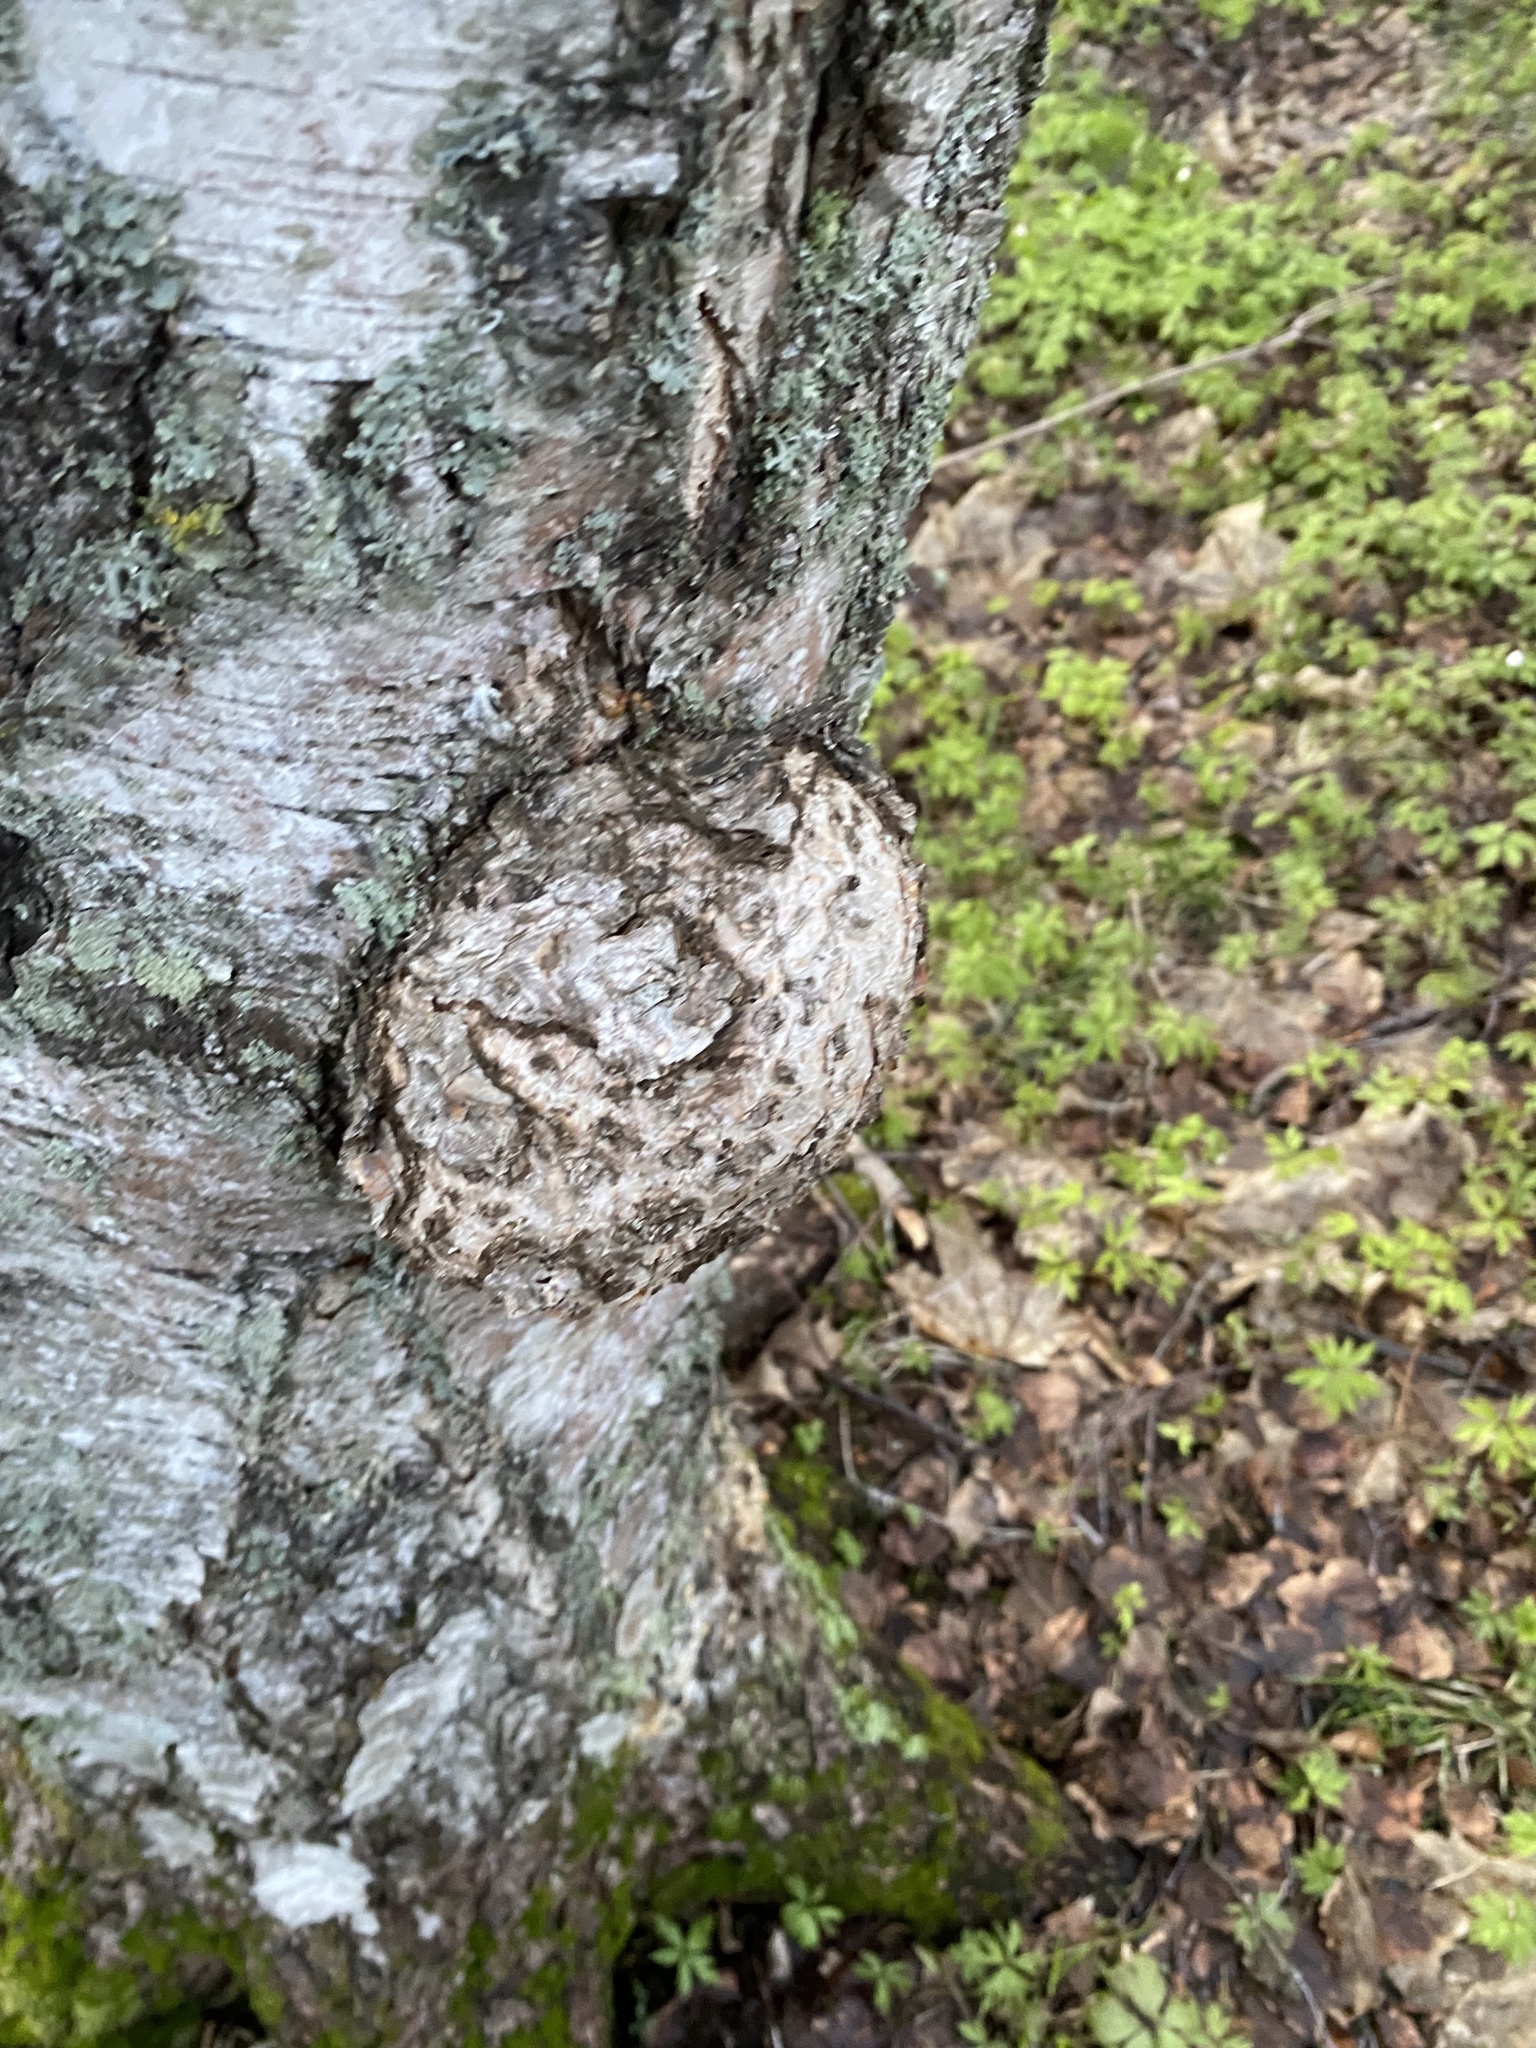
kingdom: Bacteria
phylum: Proteobacteria
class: Alphaproteobacteria
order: Rhizobiales
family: Rhizobiaceae
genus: Rhizobium
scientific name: Rhizobium Agrobacterium radiobacter
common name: Bacterial crown gall
